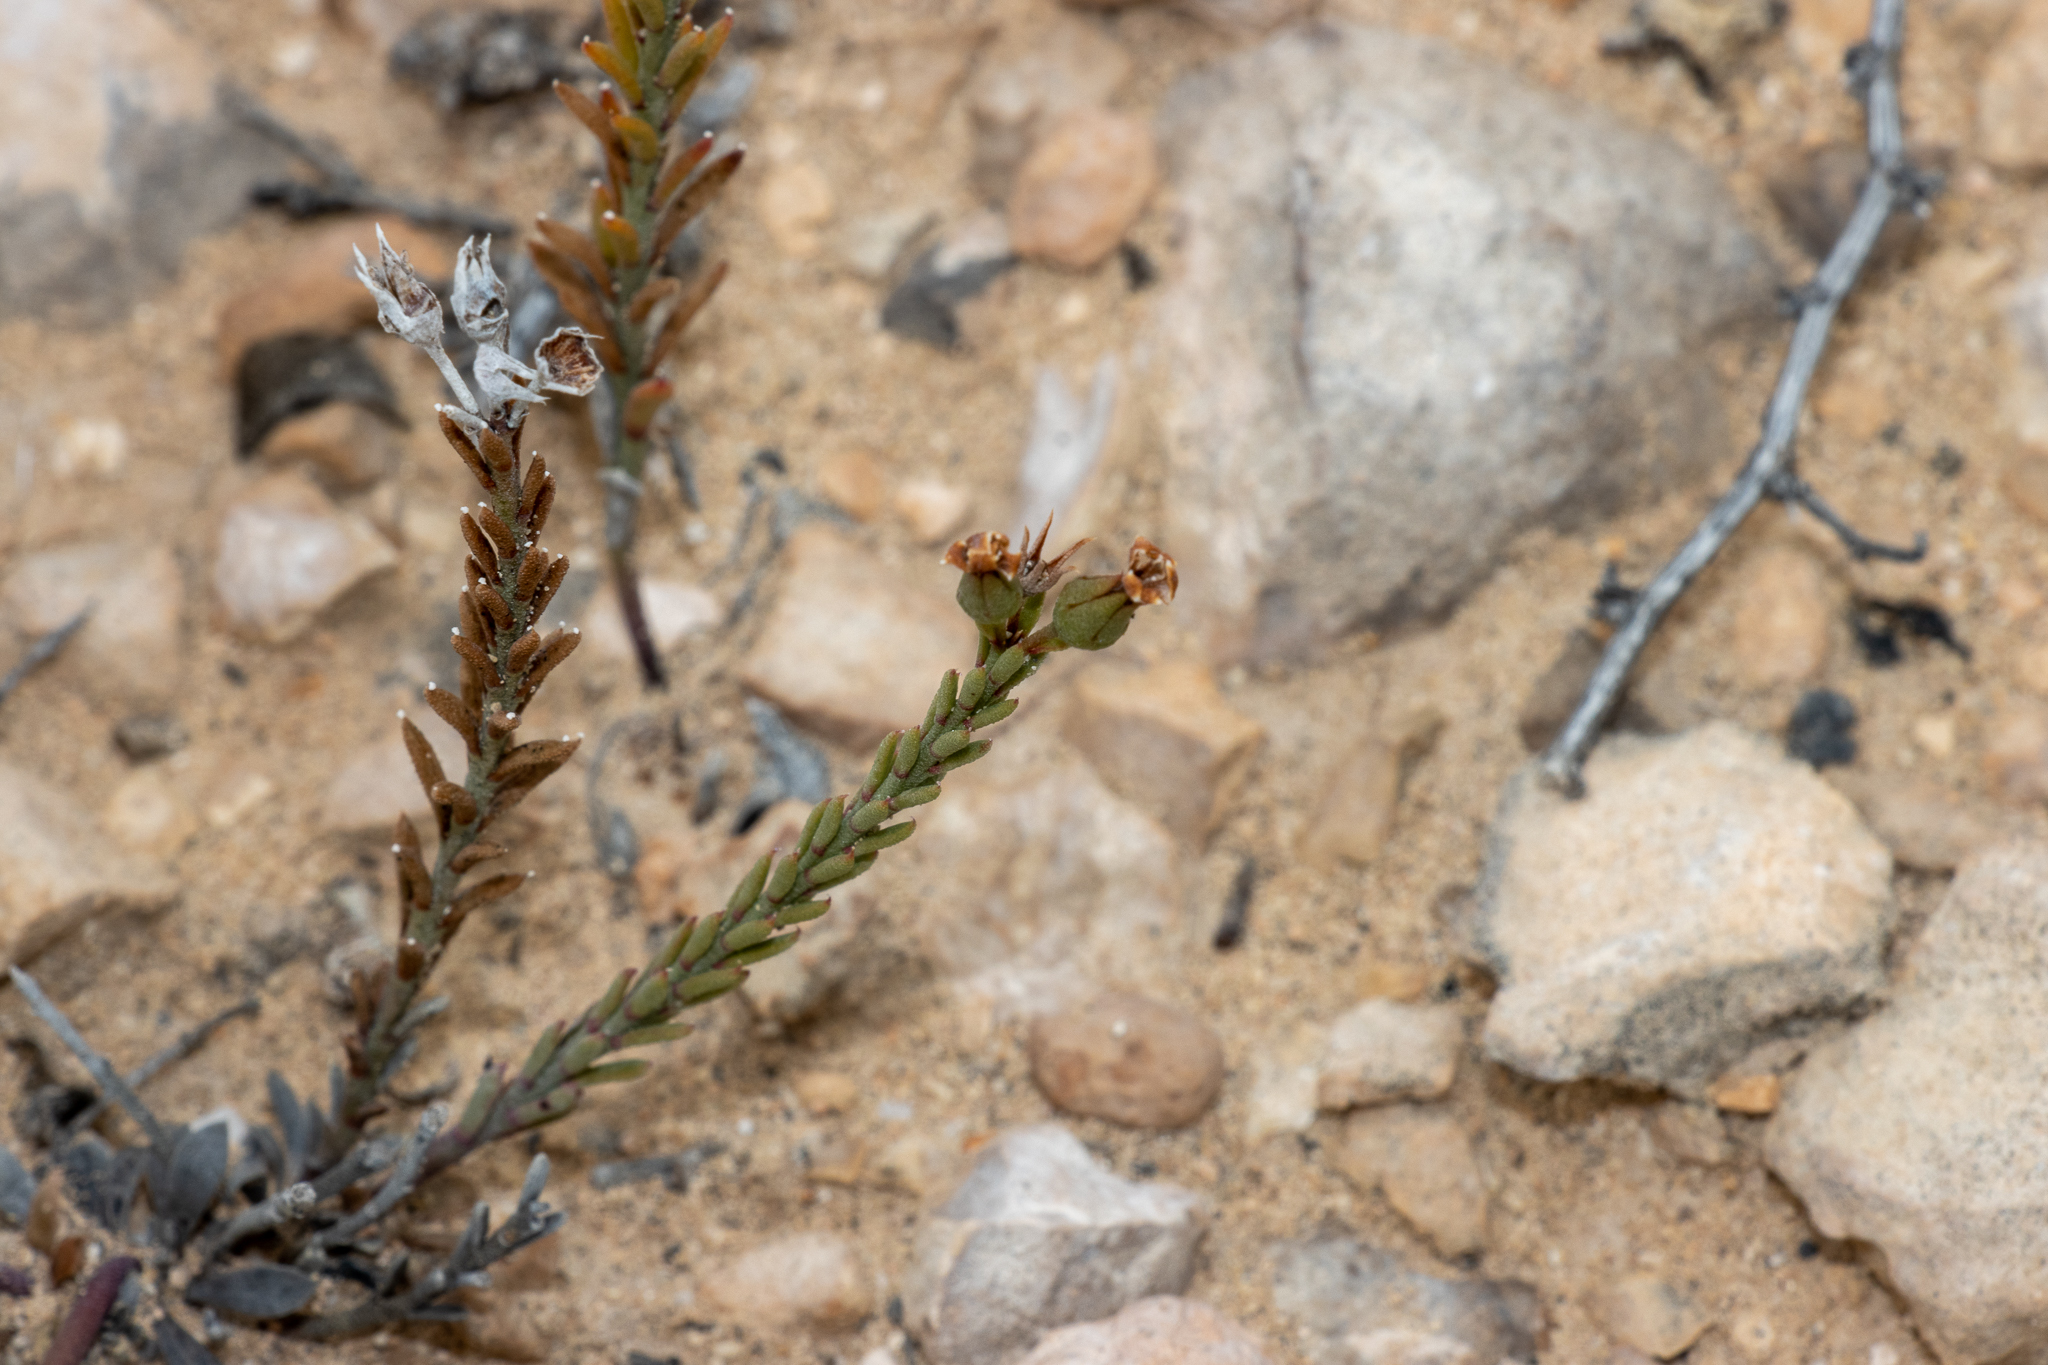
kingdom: Plantae
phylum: Tracheophyta
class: Magnoliopsida
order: Ericales
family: Primulaceae
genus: Samolus
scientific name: Samolus repens
